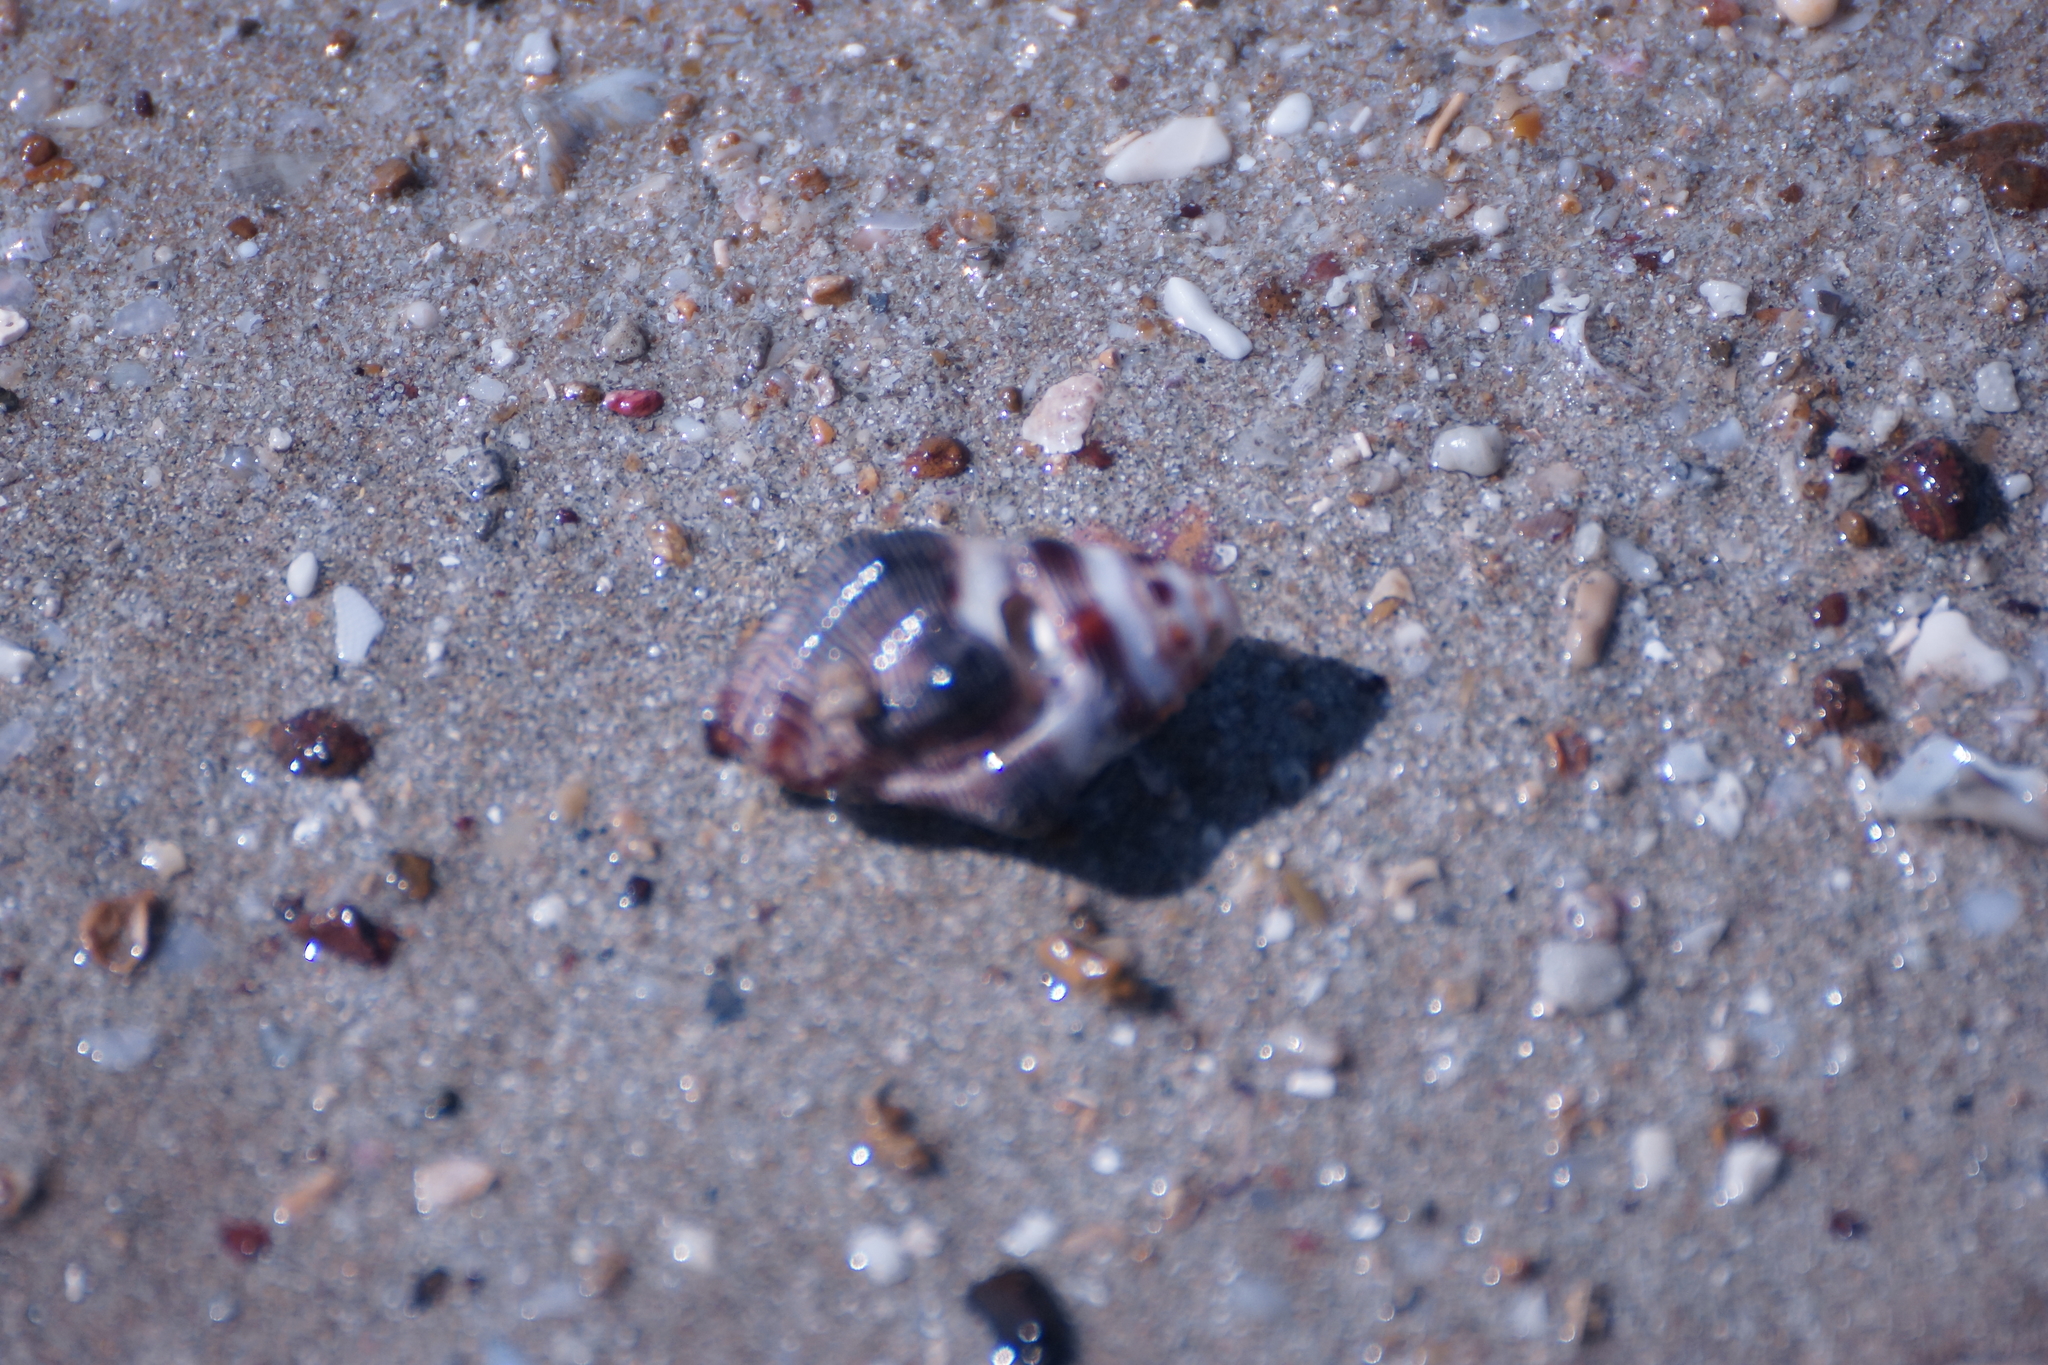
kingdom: Animalia
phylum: Mollusca
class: Gastropoda
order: Neogastropoda
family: Muricidae
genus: Drupella
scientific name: Drupella margariticola
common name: Shouldered castor bean
